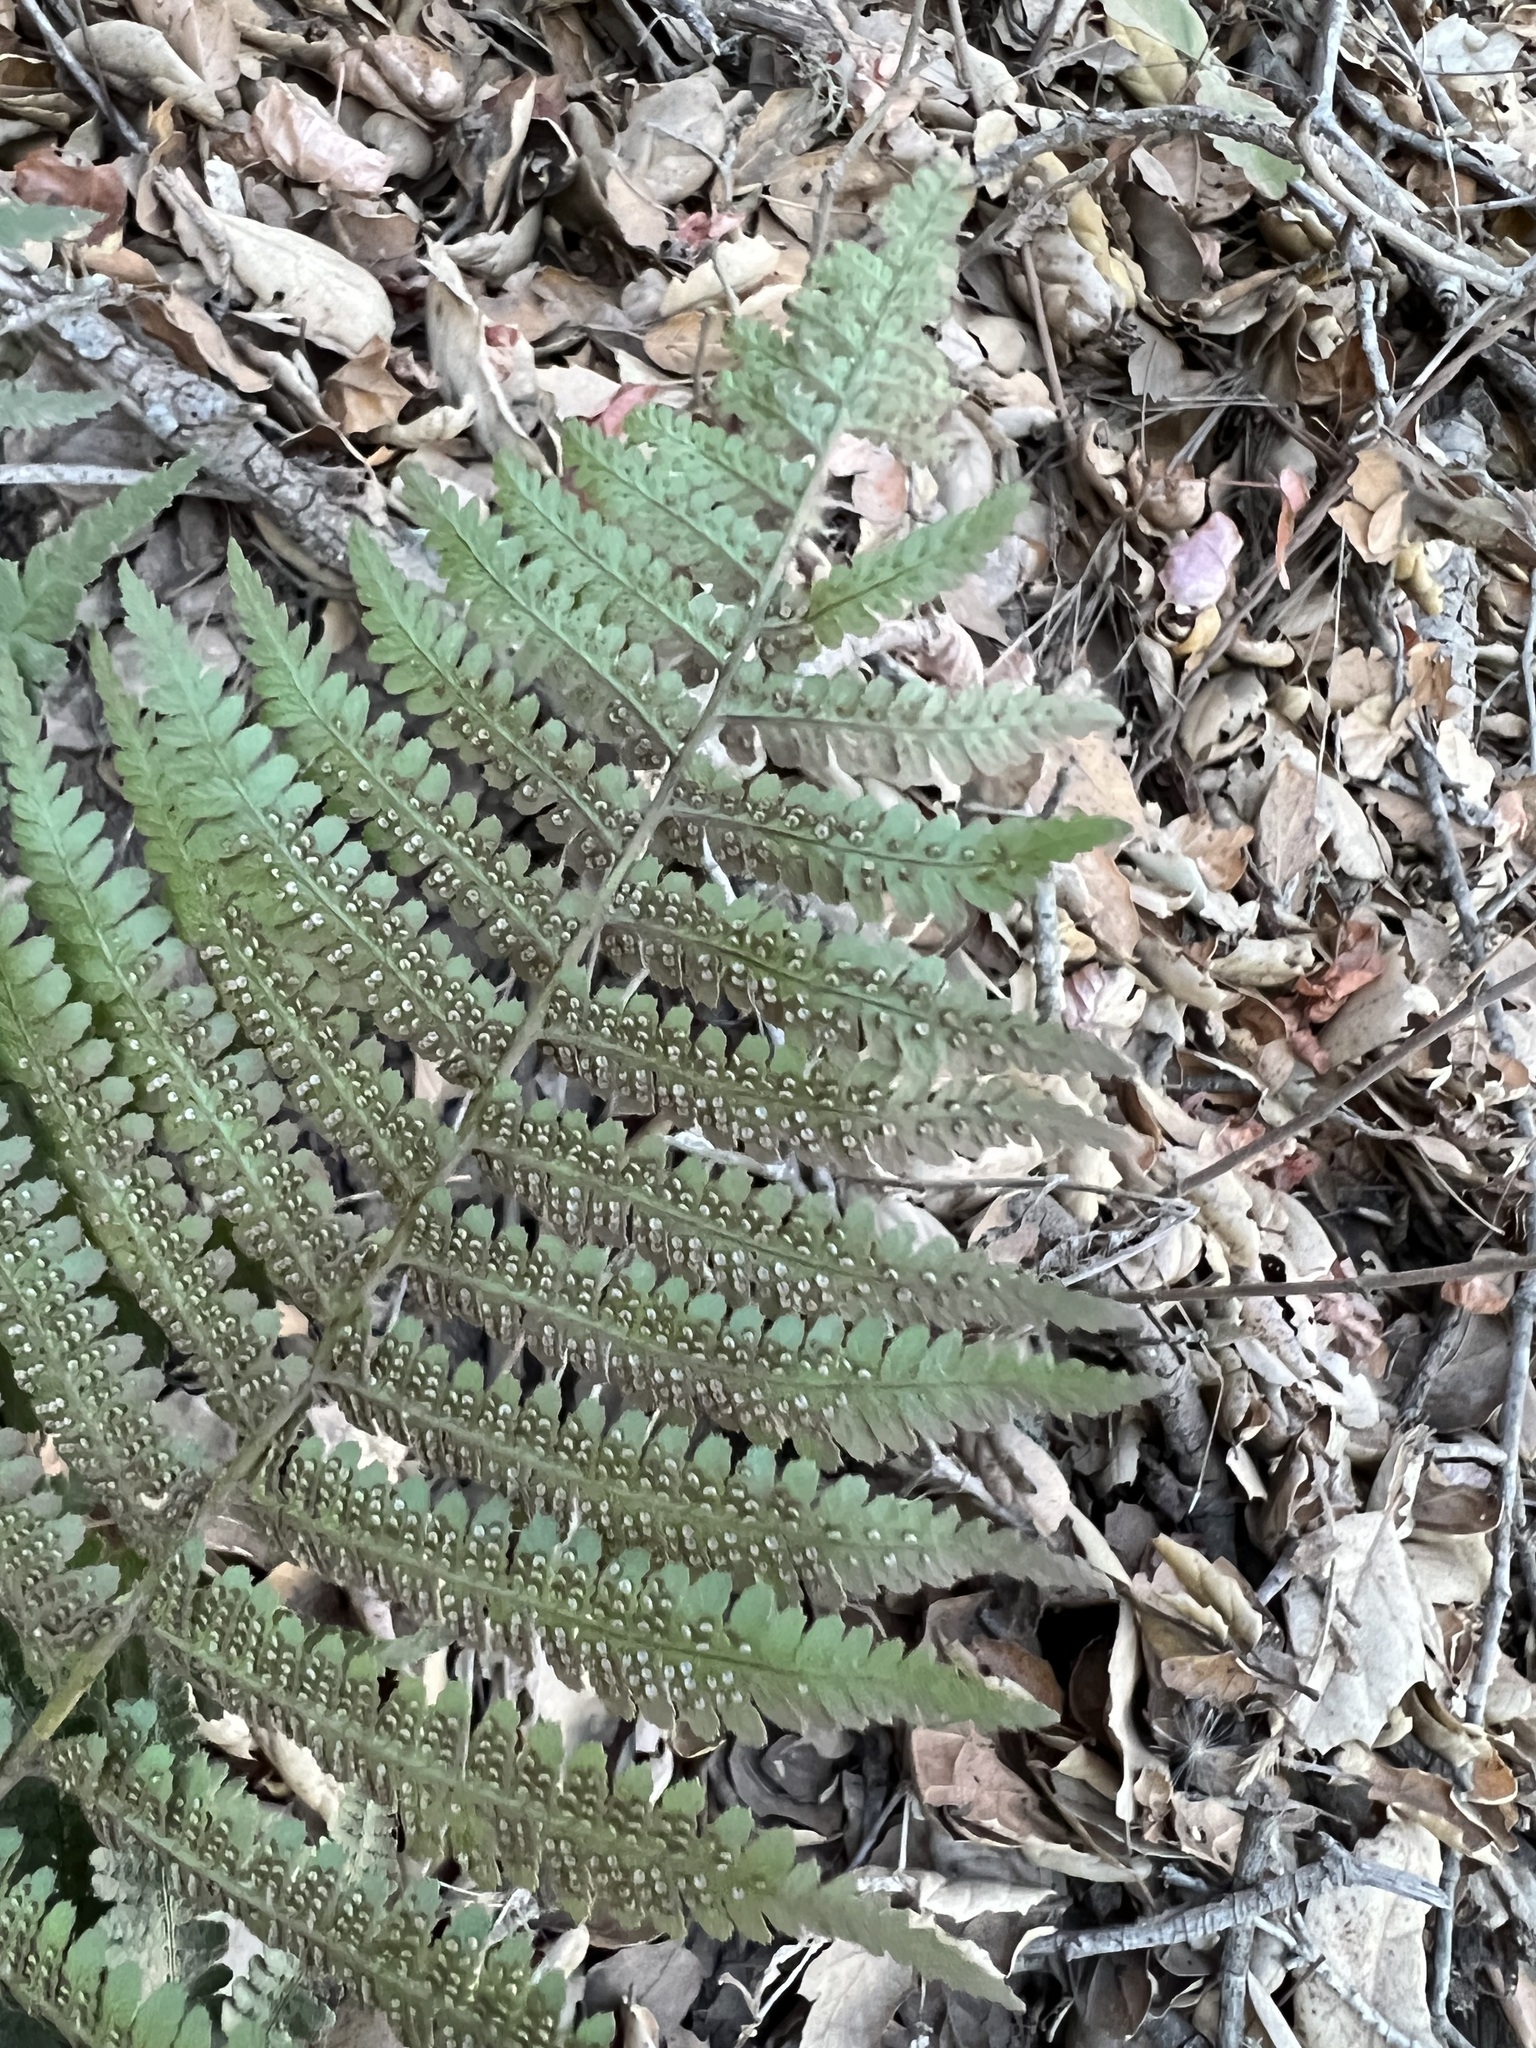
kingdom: Plantae
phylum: Tracheophyta
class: Polypodiopsida
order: Polypodiales
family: Dryopteridaceae
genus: Dryopteris
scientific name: Dryopteris arguta
